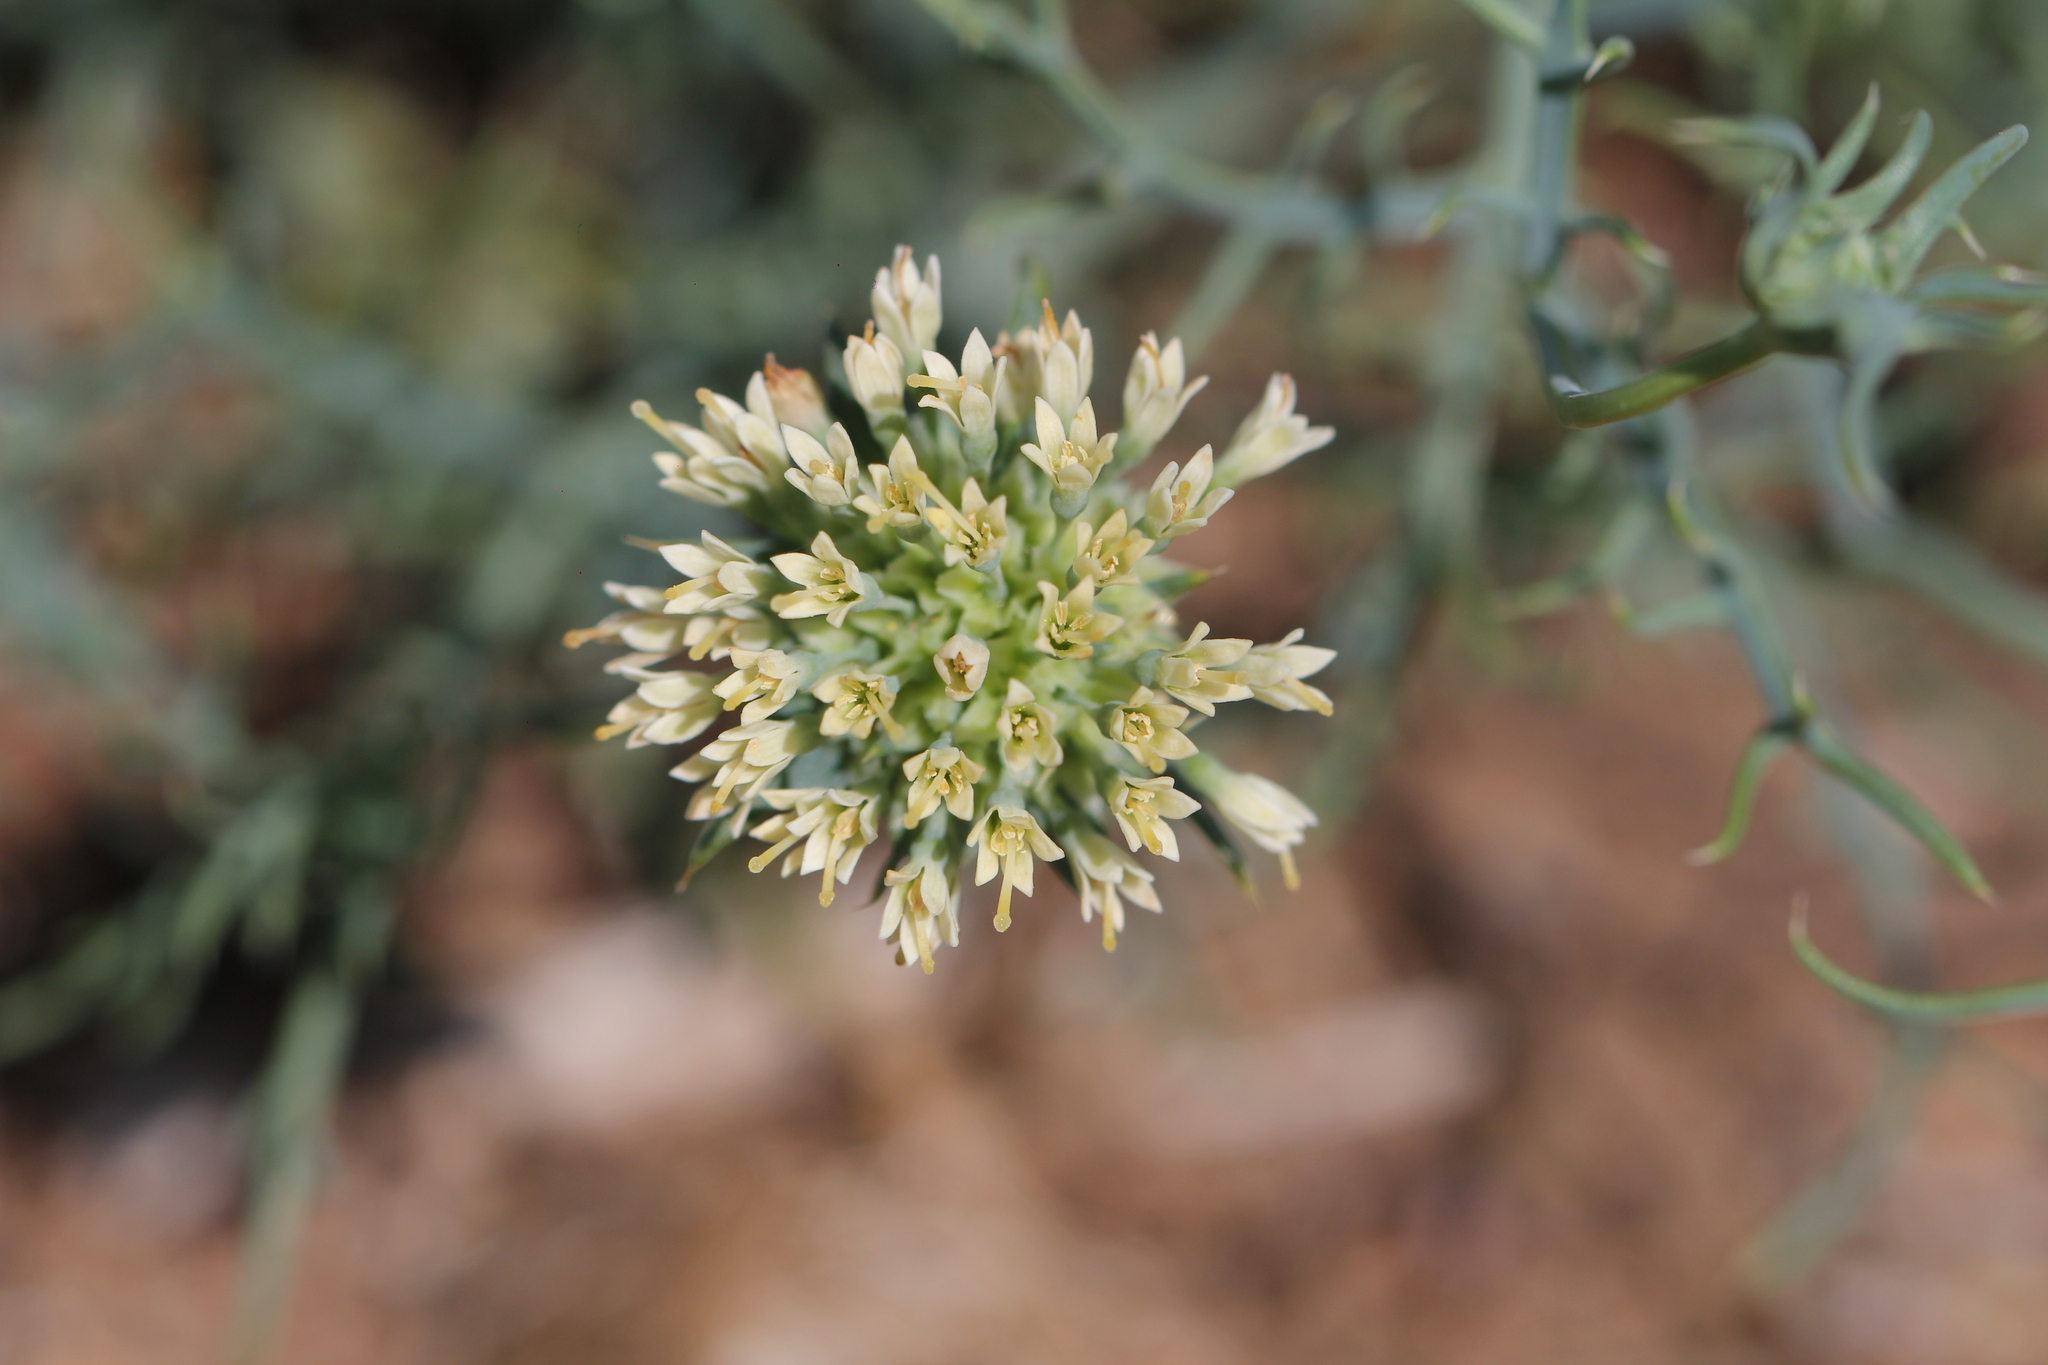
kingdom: Plantae
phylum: Tracheophyta
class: Magnoliopsida
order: Asterales
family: Calyceraceae
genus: Boopis
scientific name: Boopis anthemoides
